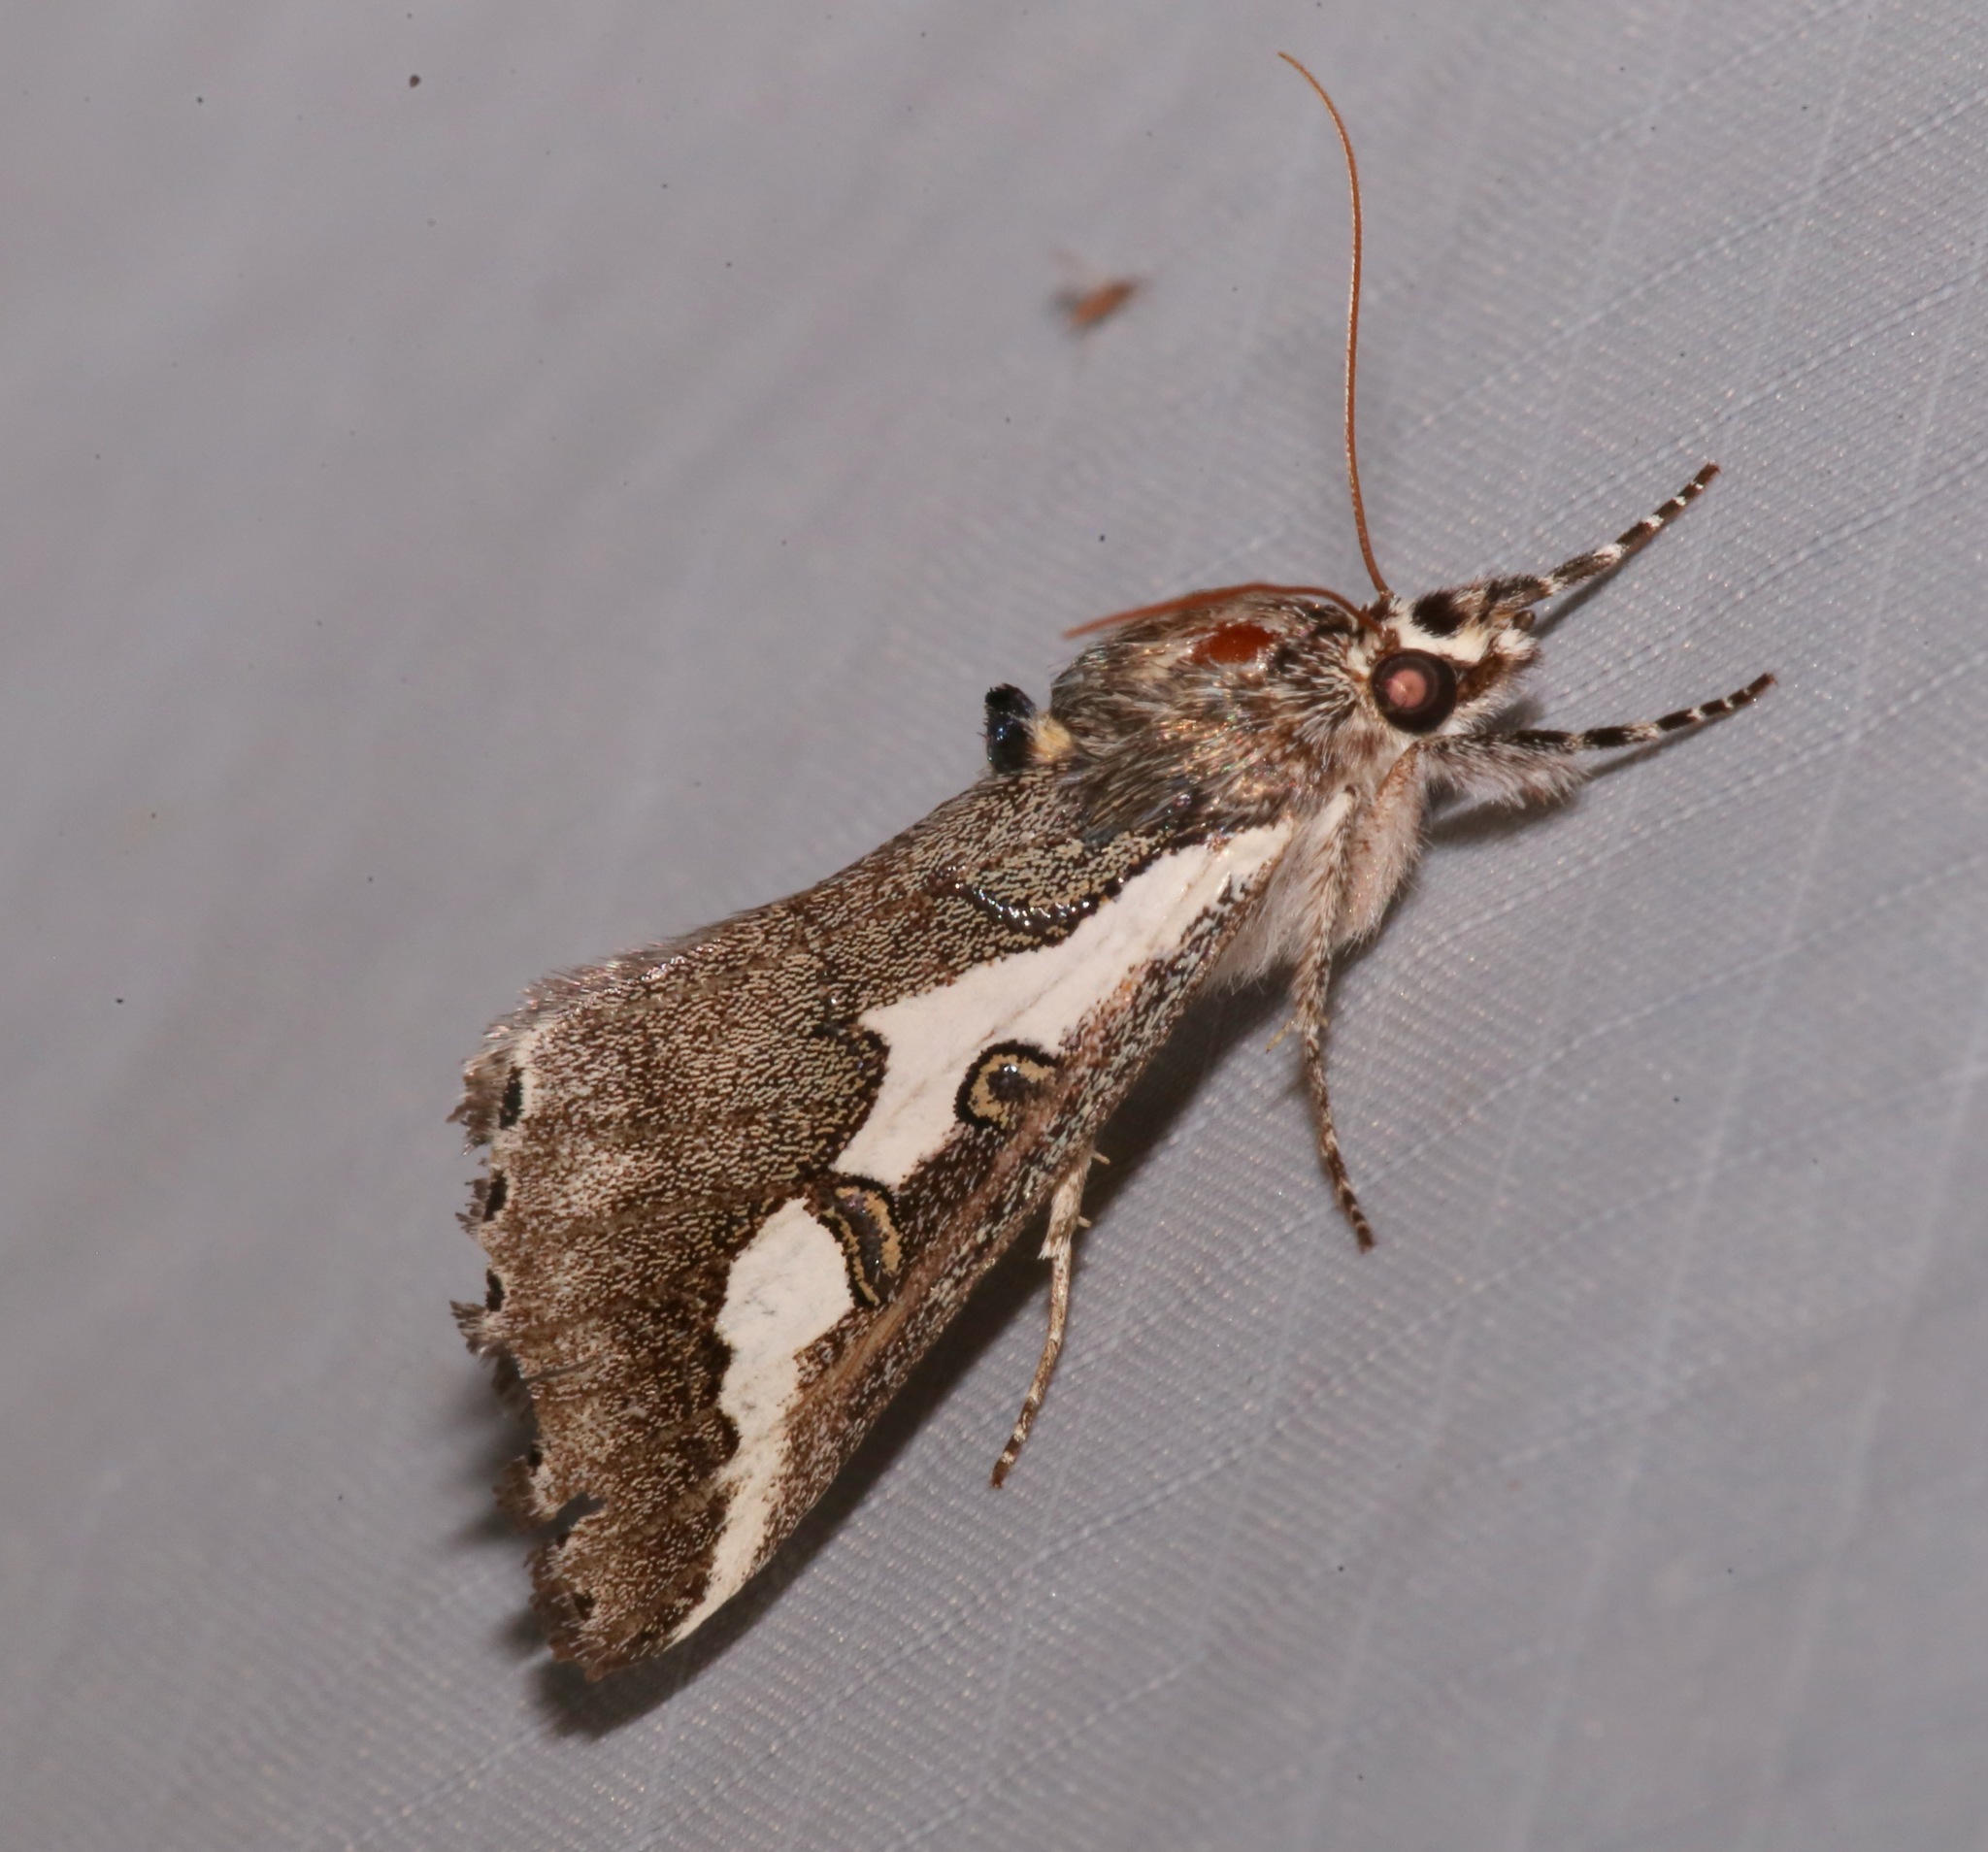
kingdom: Animalia
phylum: Arthropoda
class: Insecta
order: Lepidoptera
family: Noctuidae
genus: Euscirrhopterus
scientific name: Euscirrhopterus gloveri
